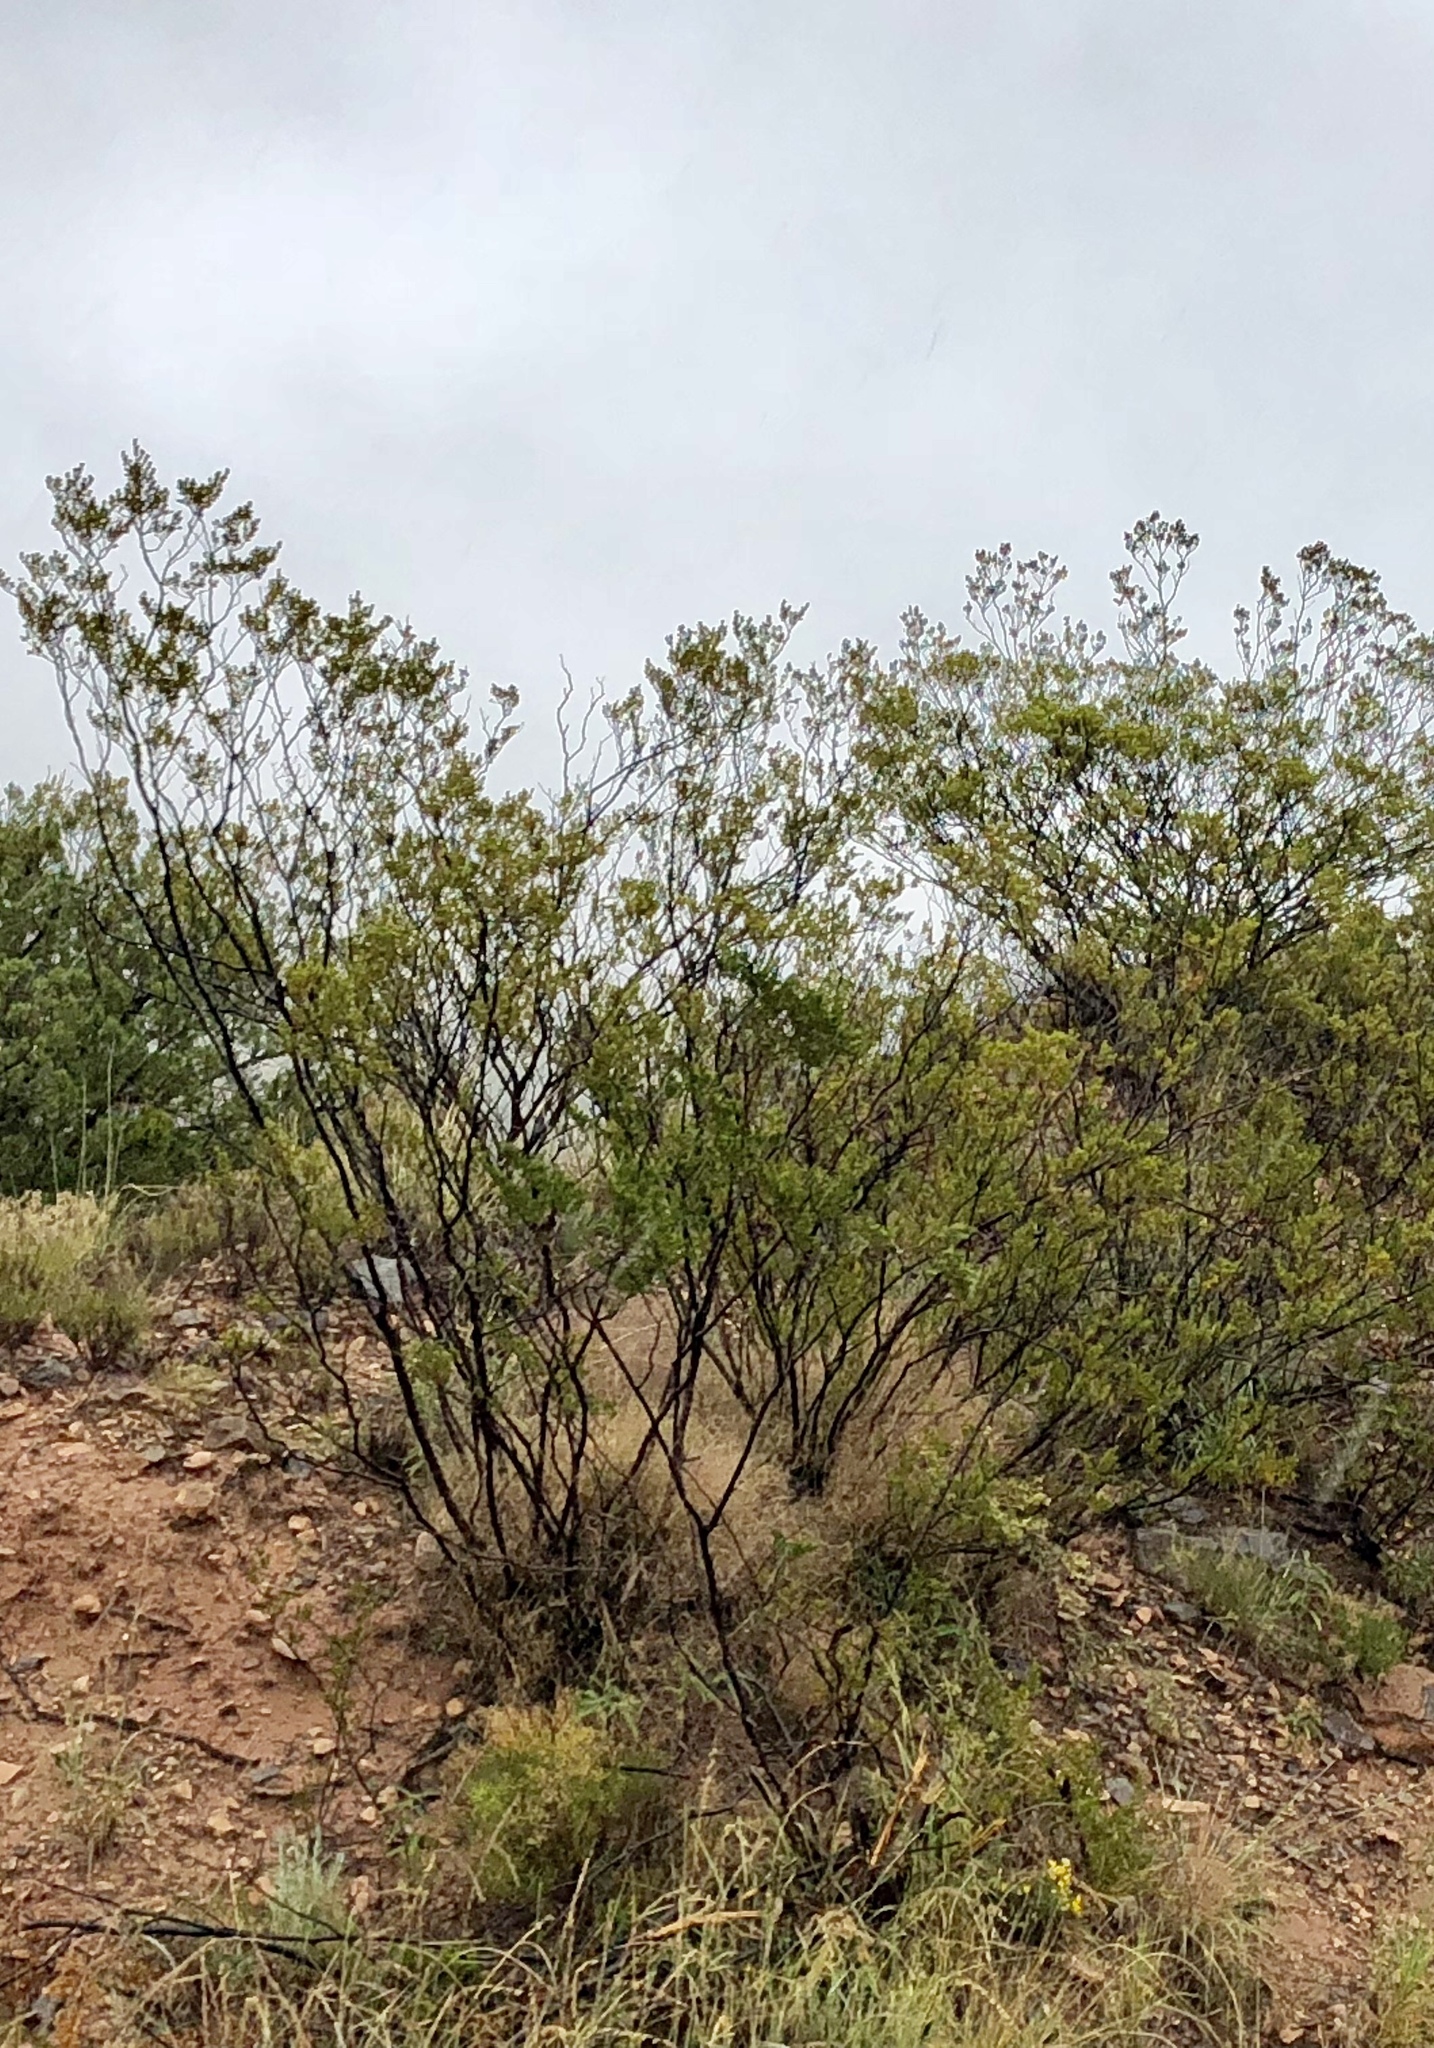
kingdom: Plantae
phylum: Tracheophyta
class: Magnoliopsida
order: Zygophyllales
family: Zygophyllaceae
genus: Larrea
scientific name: Larrea tridentata
